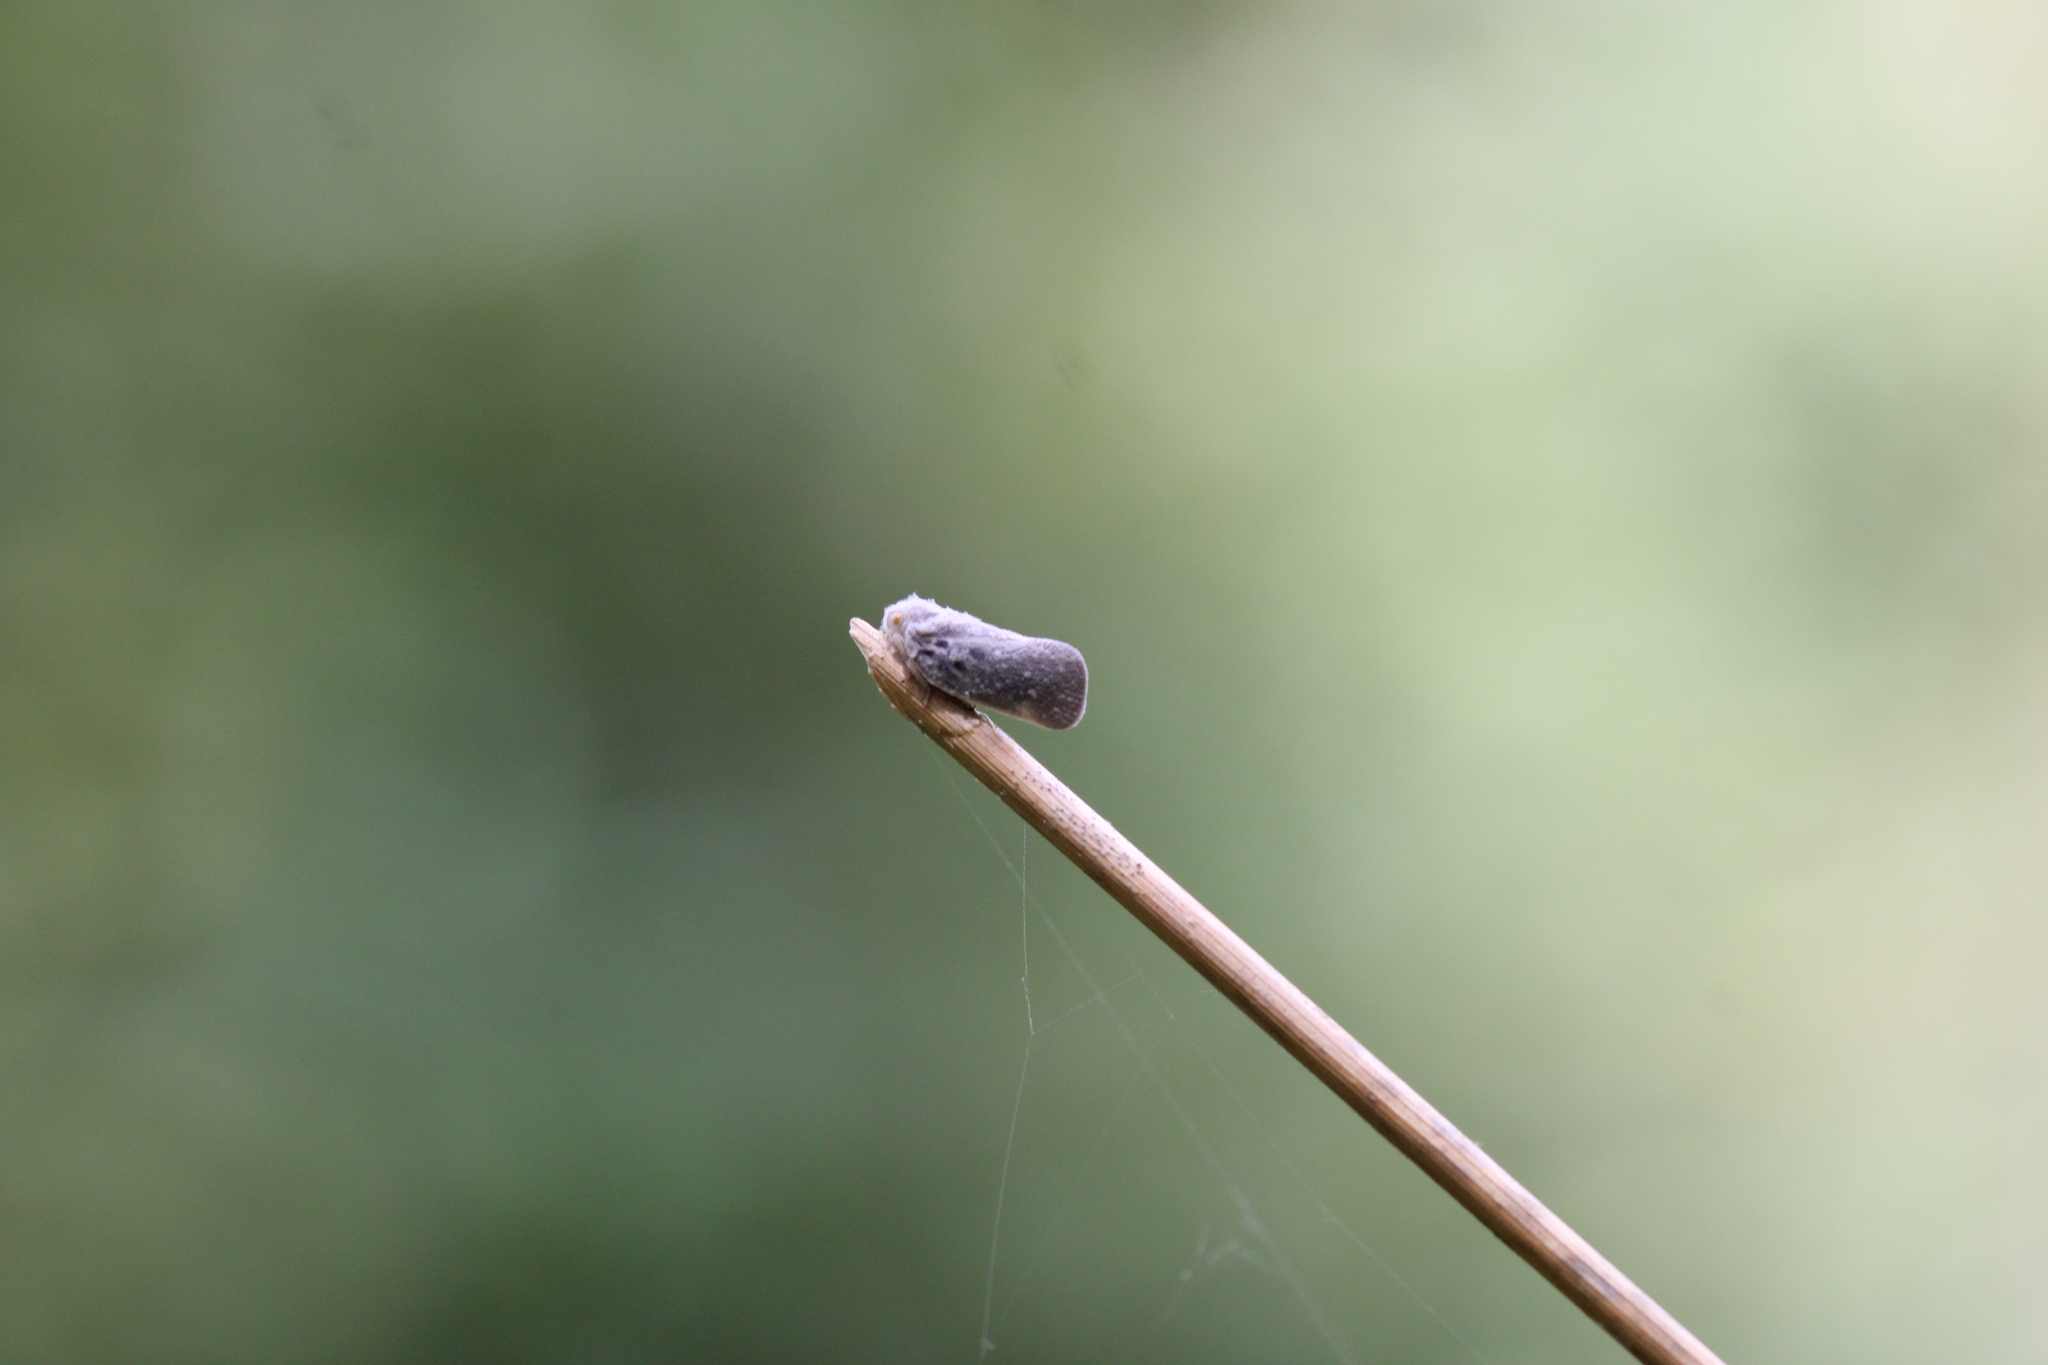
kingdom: Animalia
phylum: Arthropoda
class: Insecta
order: Hemiptera
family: Flatidae
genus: Metcalfa
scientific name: Metcalfa pruinosa
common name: Citrus flatid planthopper
